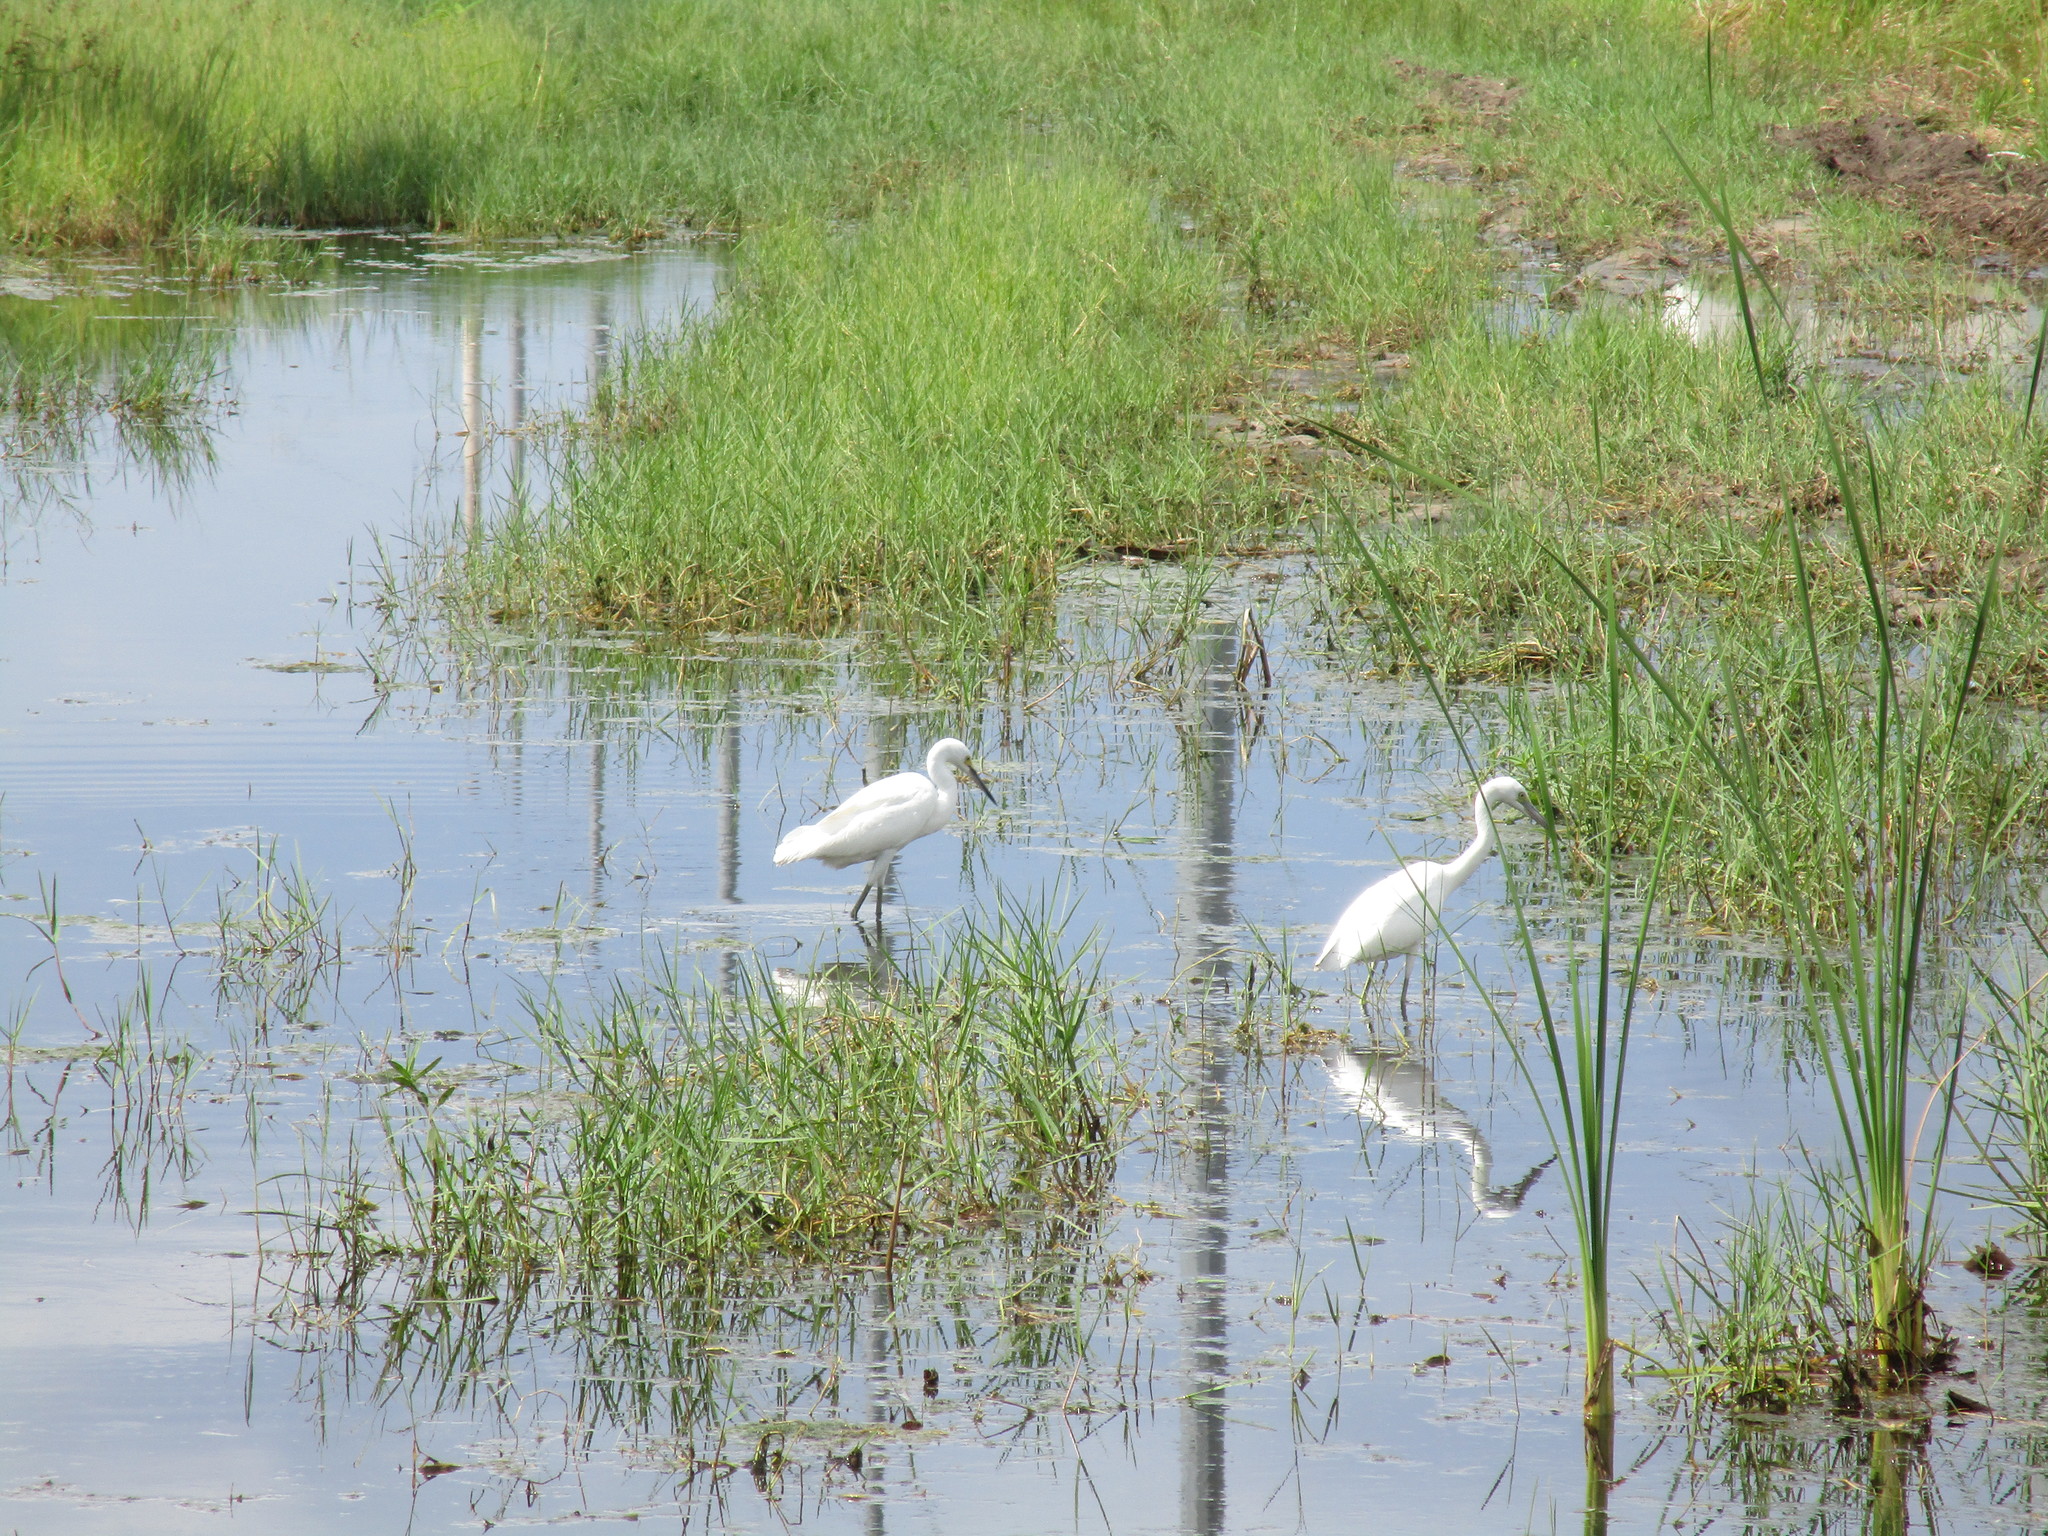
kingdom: Animalia
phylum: Chordata
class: Aves
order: Pelecaniformes
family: Ardeidae
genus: Egretta
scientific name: Egretta caerulea
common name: Little blue heron
